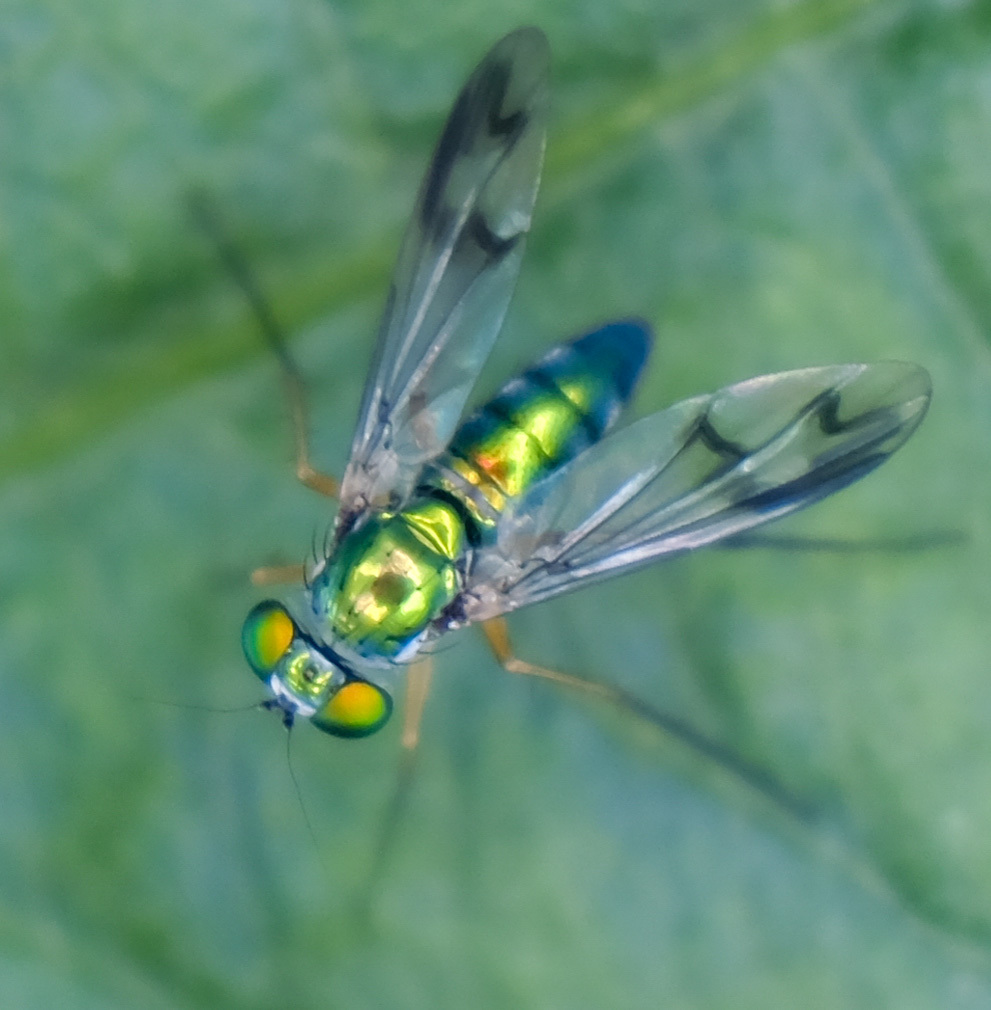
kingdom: Animalia
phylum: Arthropoda
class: Insecta
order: Diptera
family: Dolichopodidae
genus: Condylostylus
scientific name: Condylostylus
